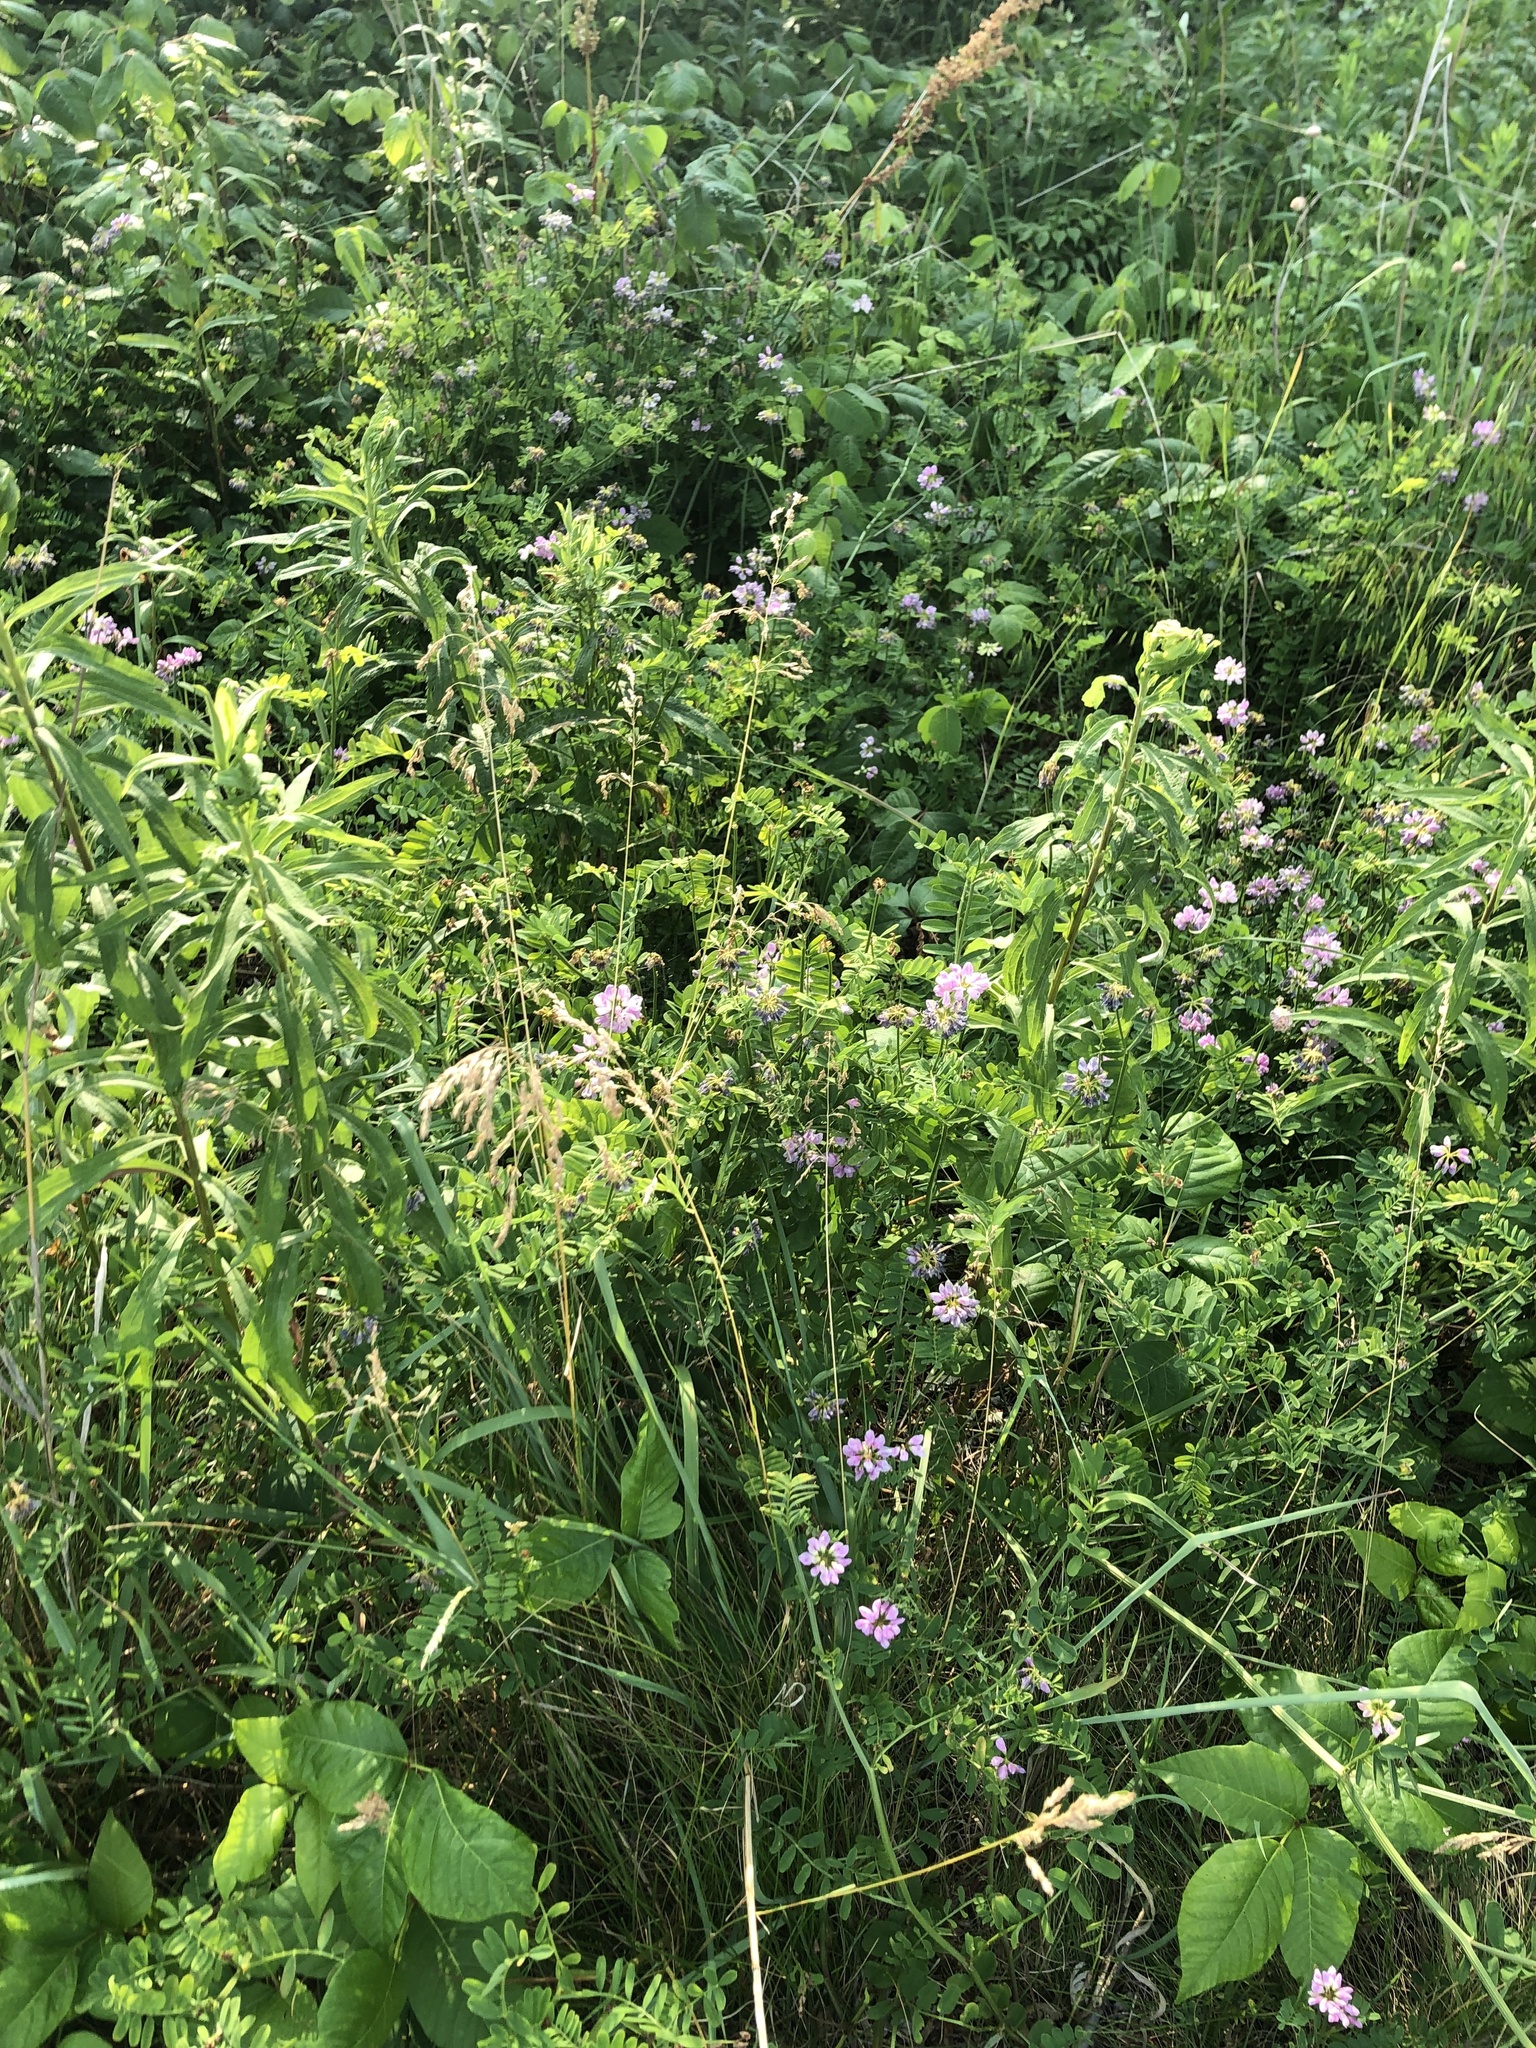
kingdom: Plantae
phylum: Tracheophyta
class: Magnoliopsida
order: Fabales
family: Fabaceae
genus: Coronilla
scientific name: Coronilla varia
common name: Crownvetch
